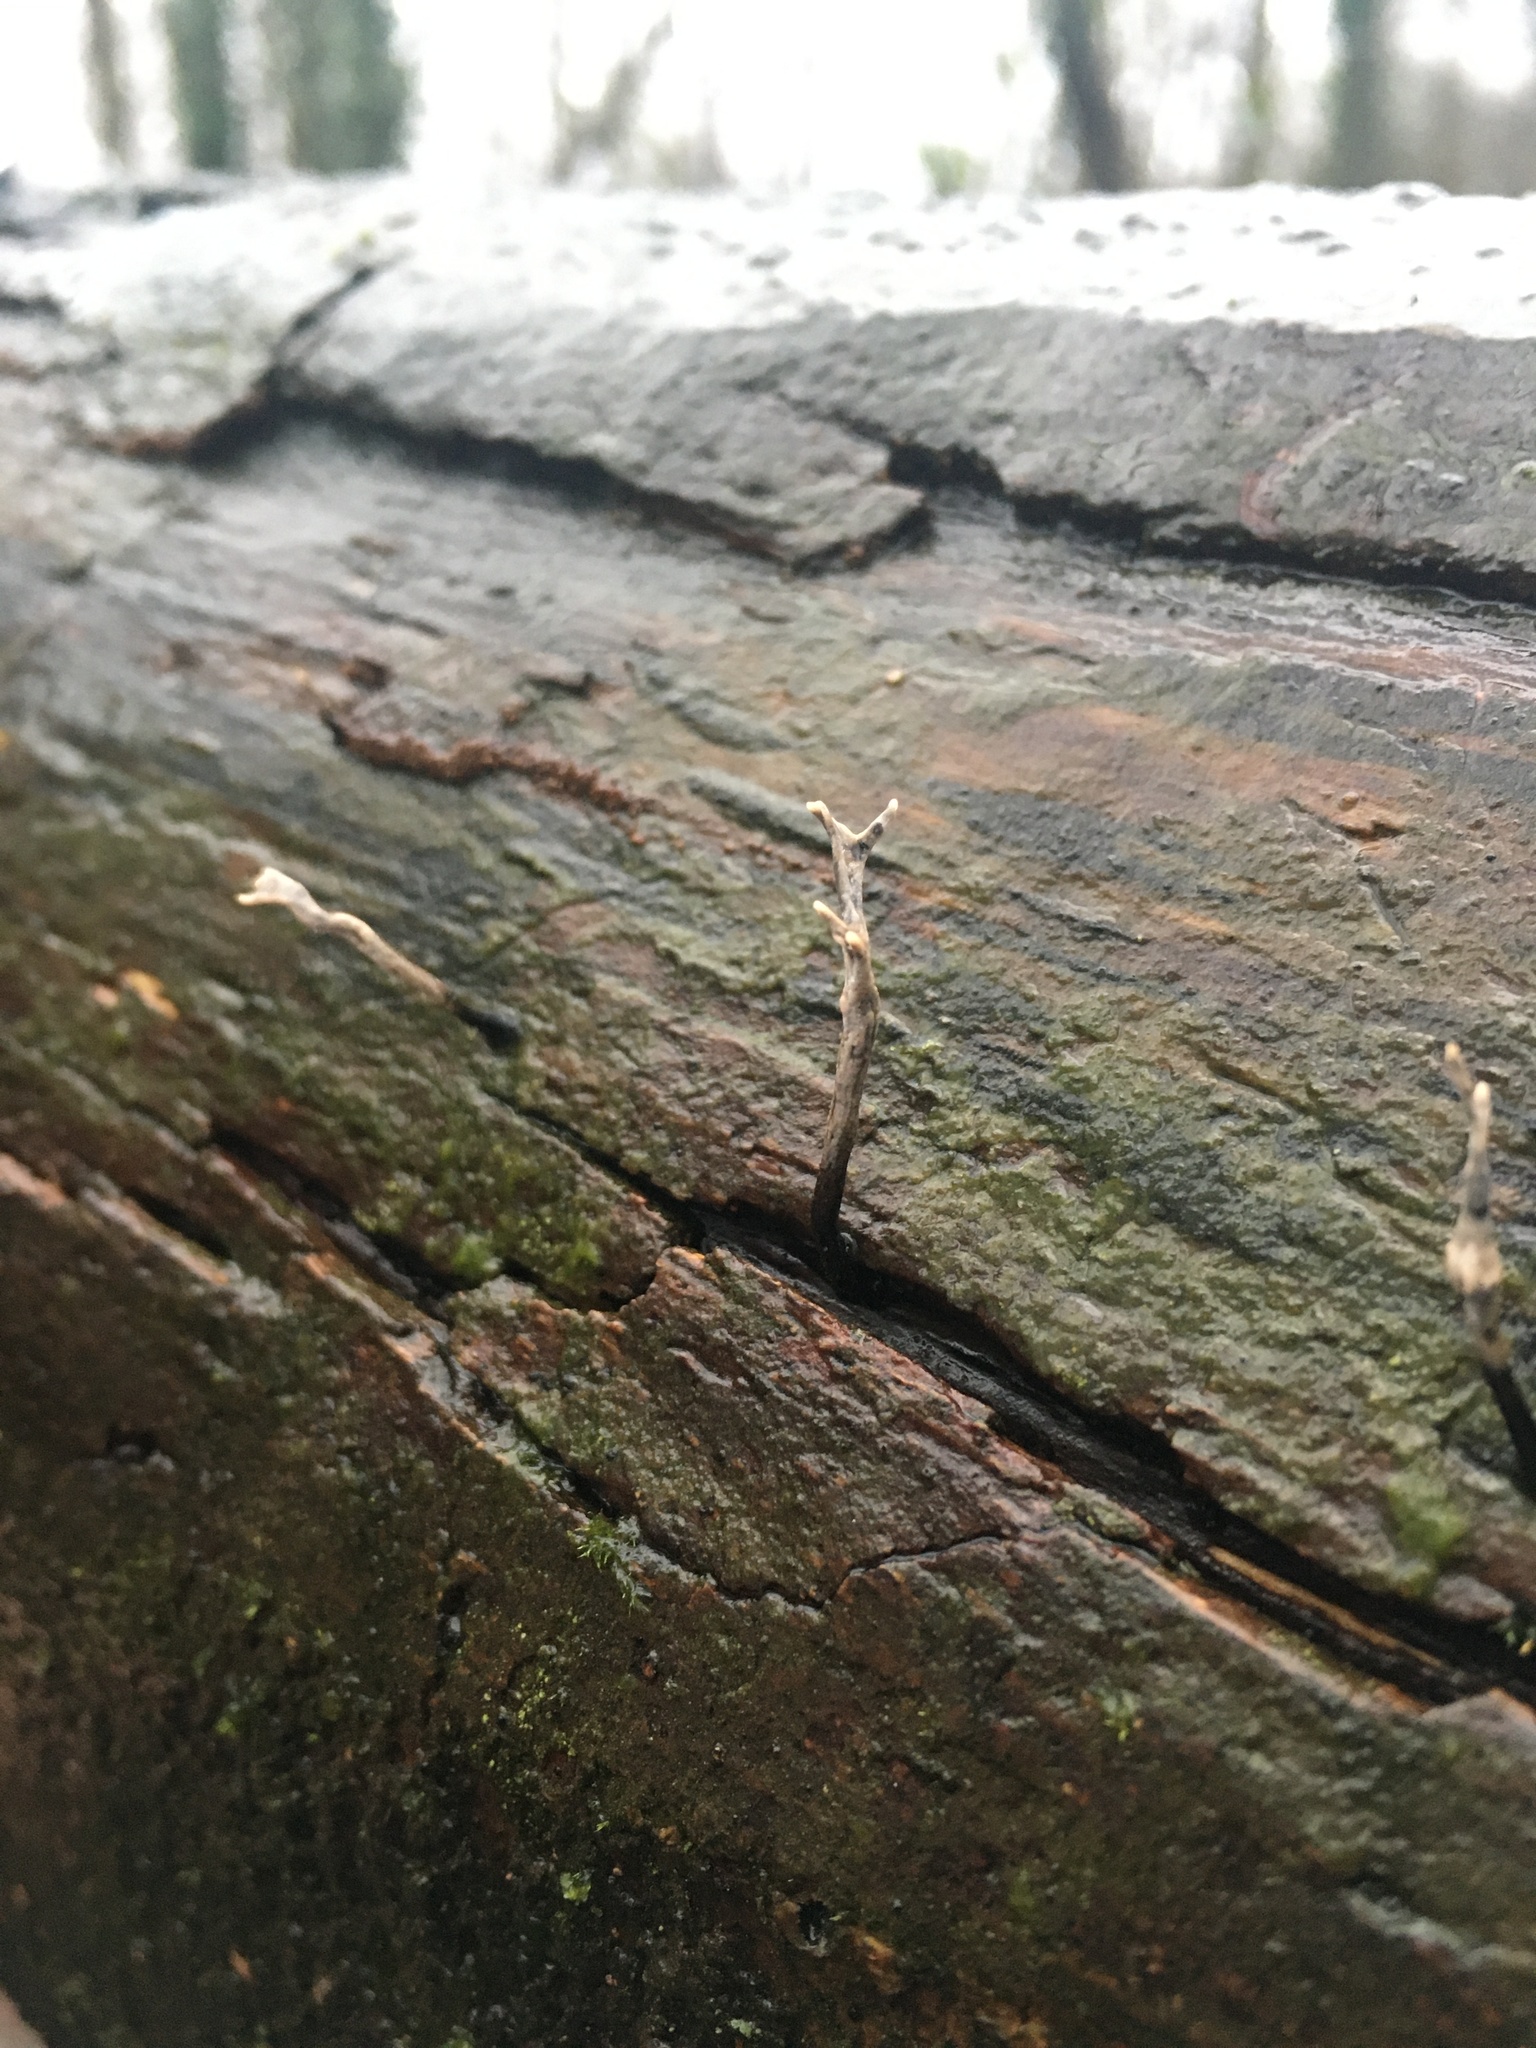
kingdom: Fungi
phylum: Ascomycota
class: Sordariomycetes
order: Xylariales
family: Xylariaceae
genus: Xylaria
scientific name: Xylaria hypoxylon
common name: Candle-snuff fungus
